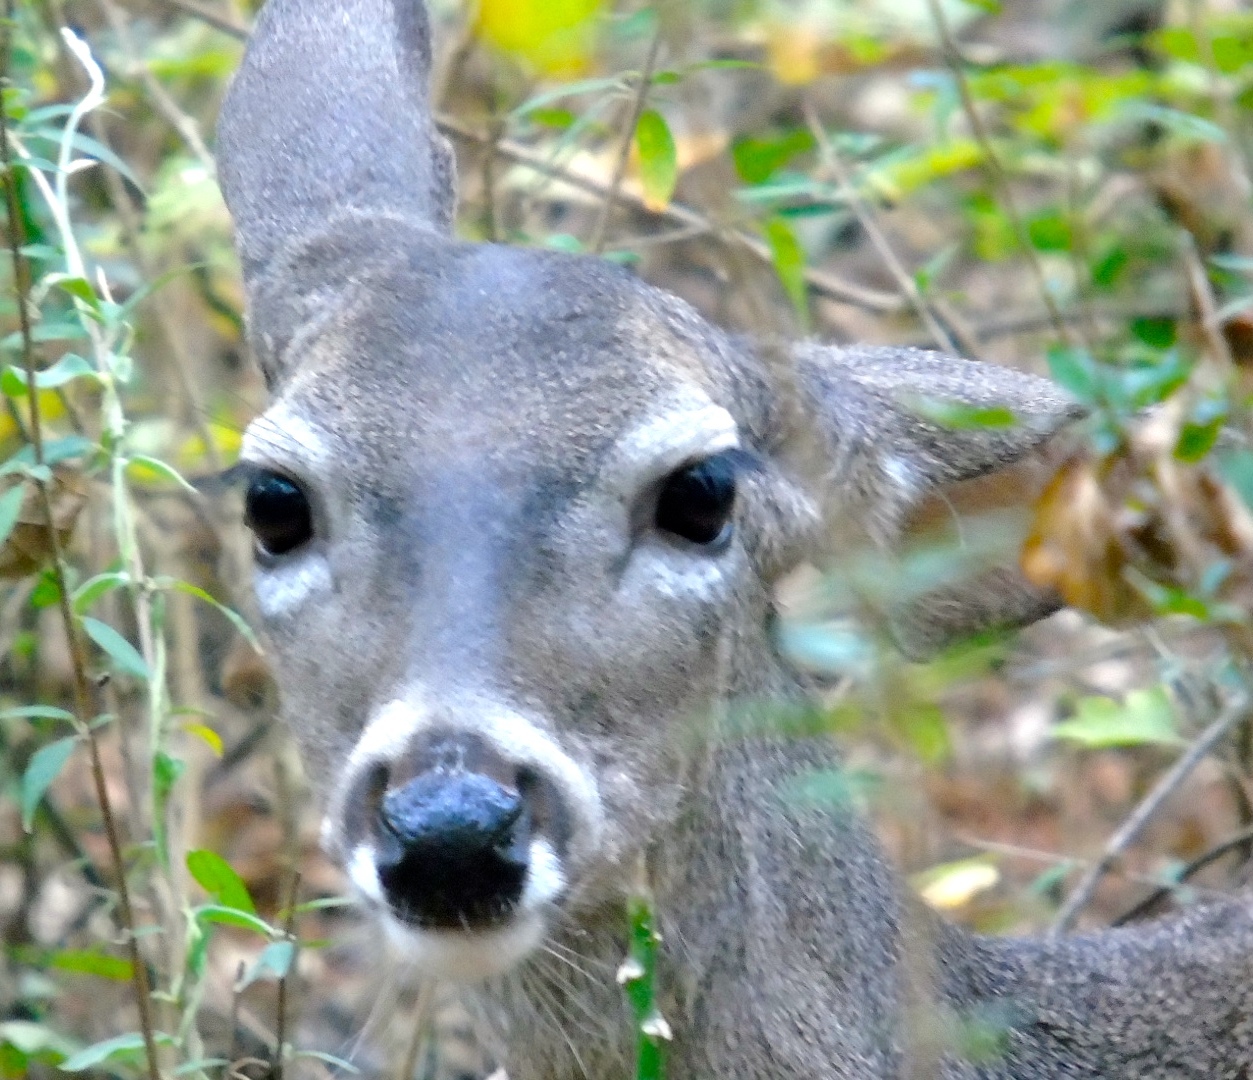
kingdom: Animalia
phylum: Chordata
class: Mammalia
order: Artiodactyla
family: Cervidae
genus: Odocoileus
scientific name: Odocoileus virginianus
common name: White-tailed deer
